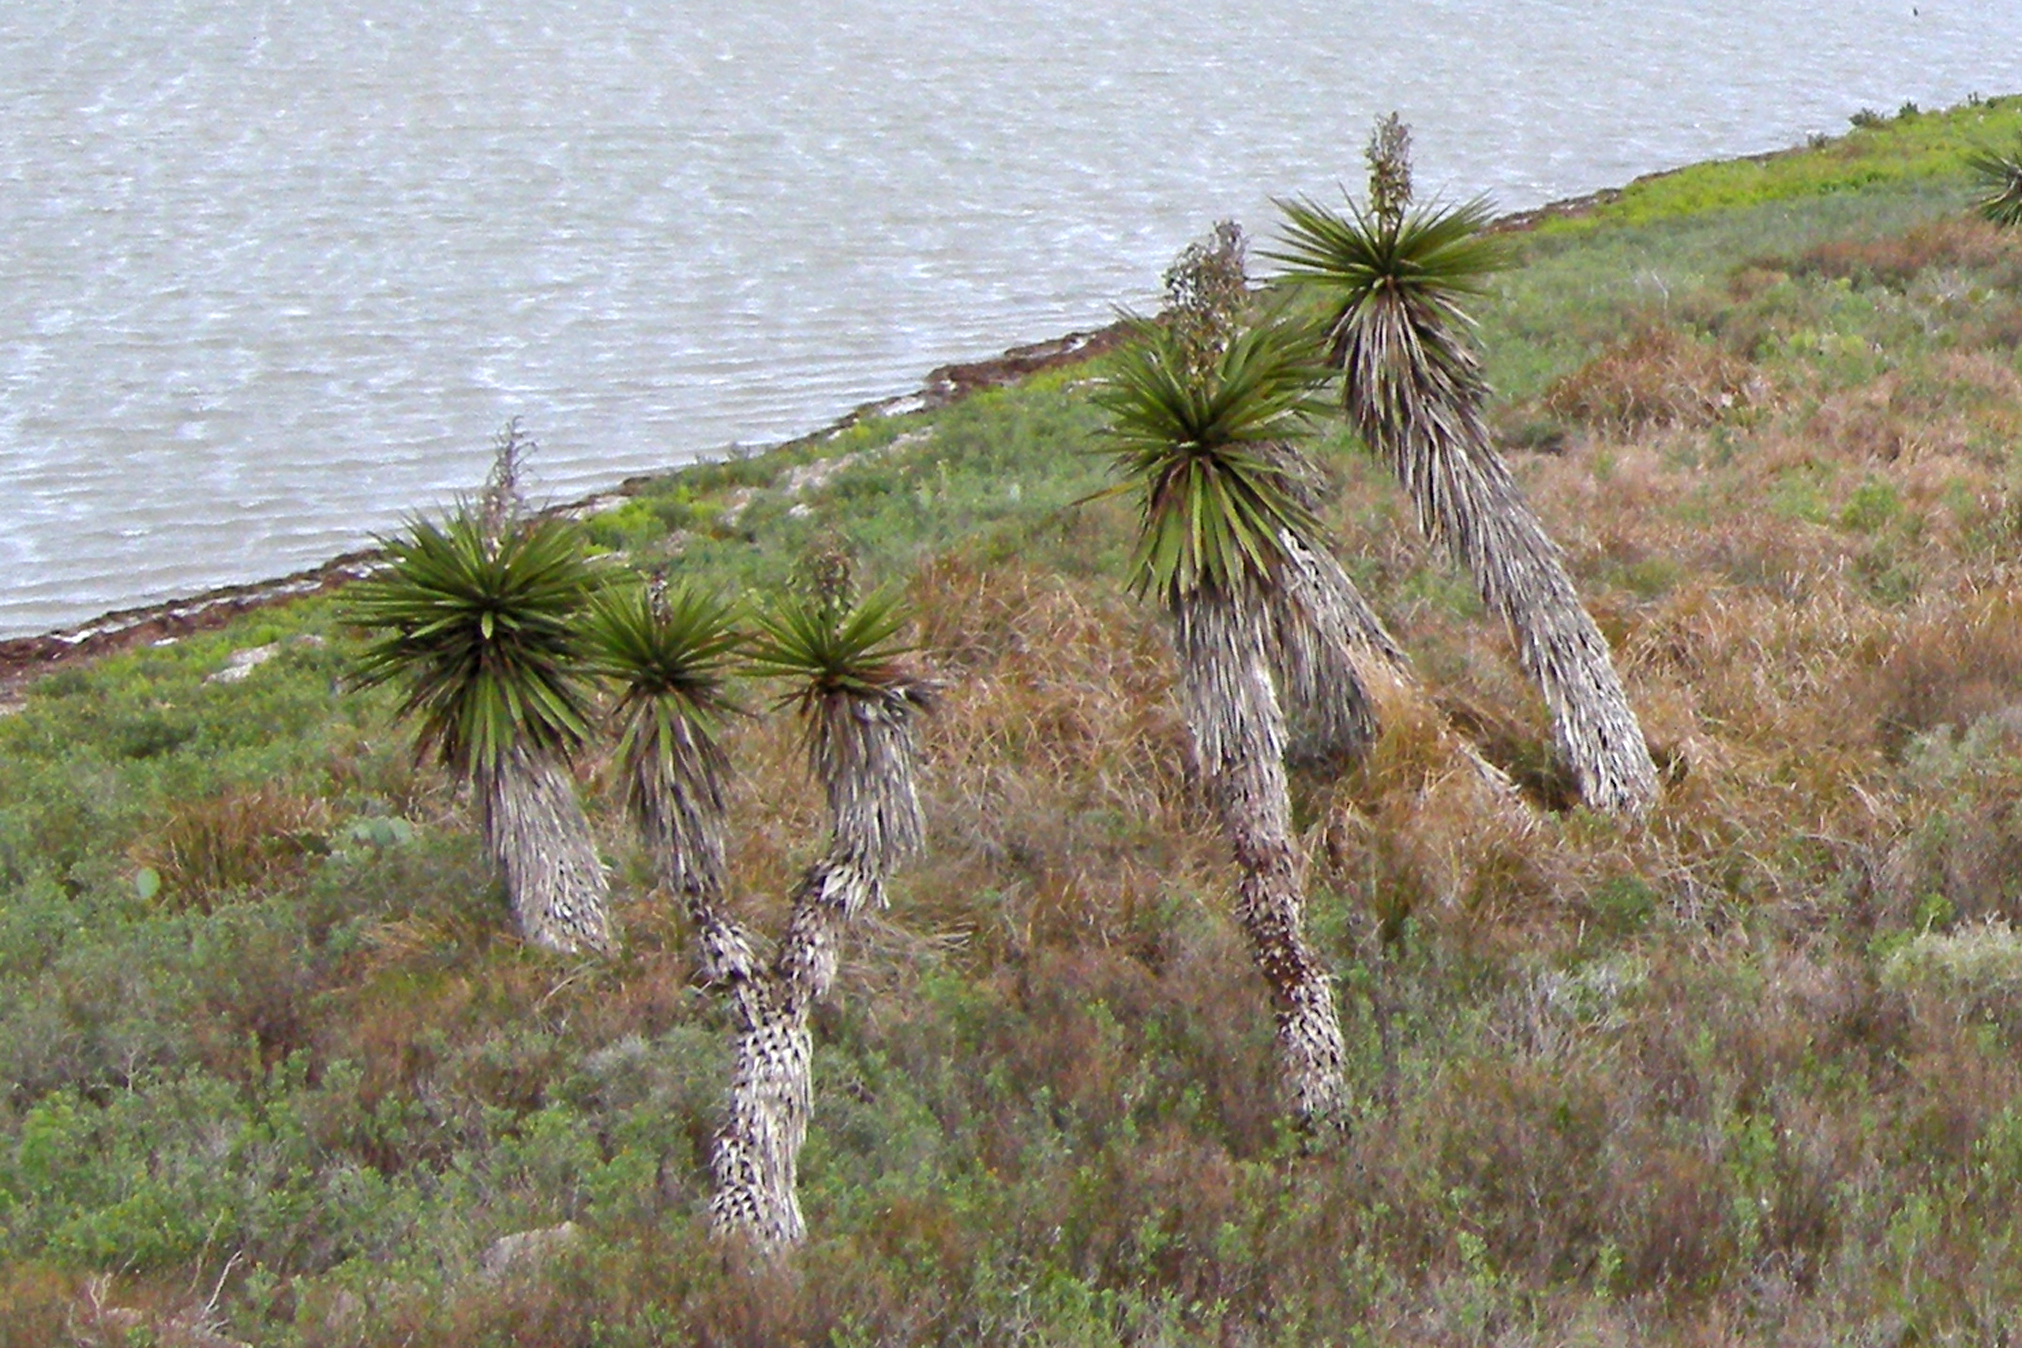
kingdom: Plantae
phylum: Tracheophyta
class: Liliopsida
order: Asparagales
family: Asparagaceae
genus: Yucca
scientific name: Yucca treculiana
